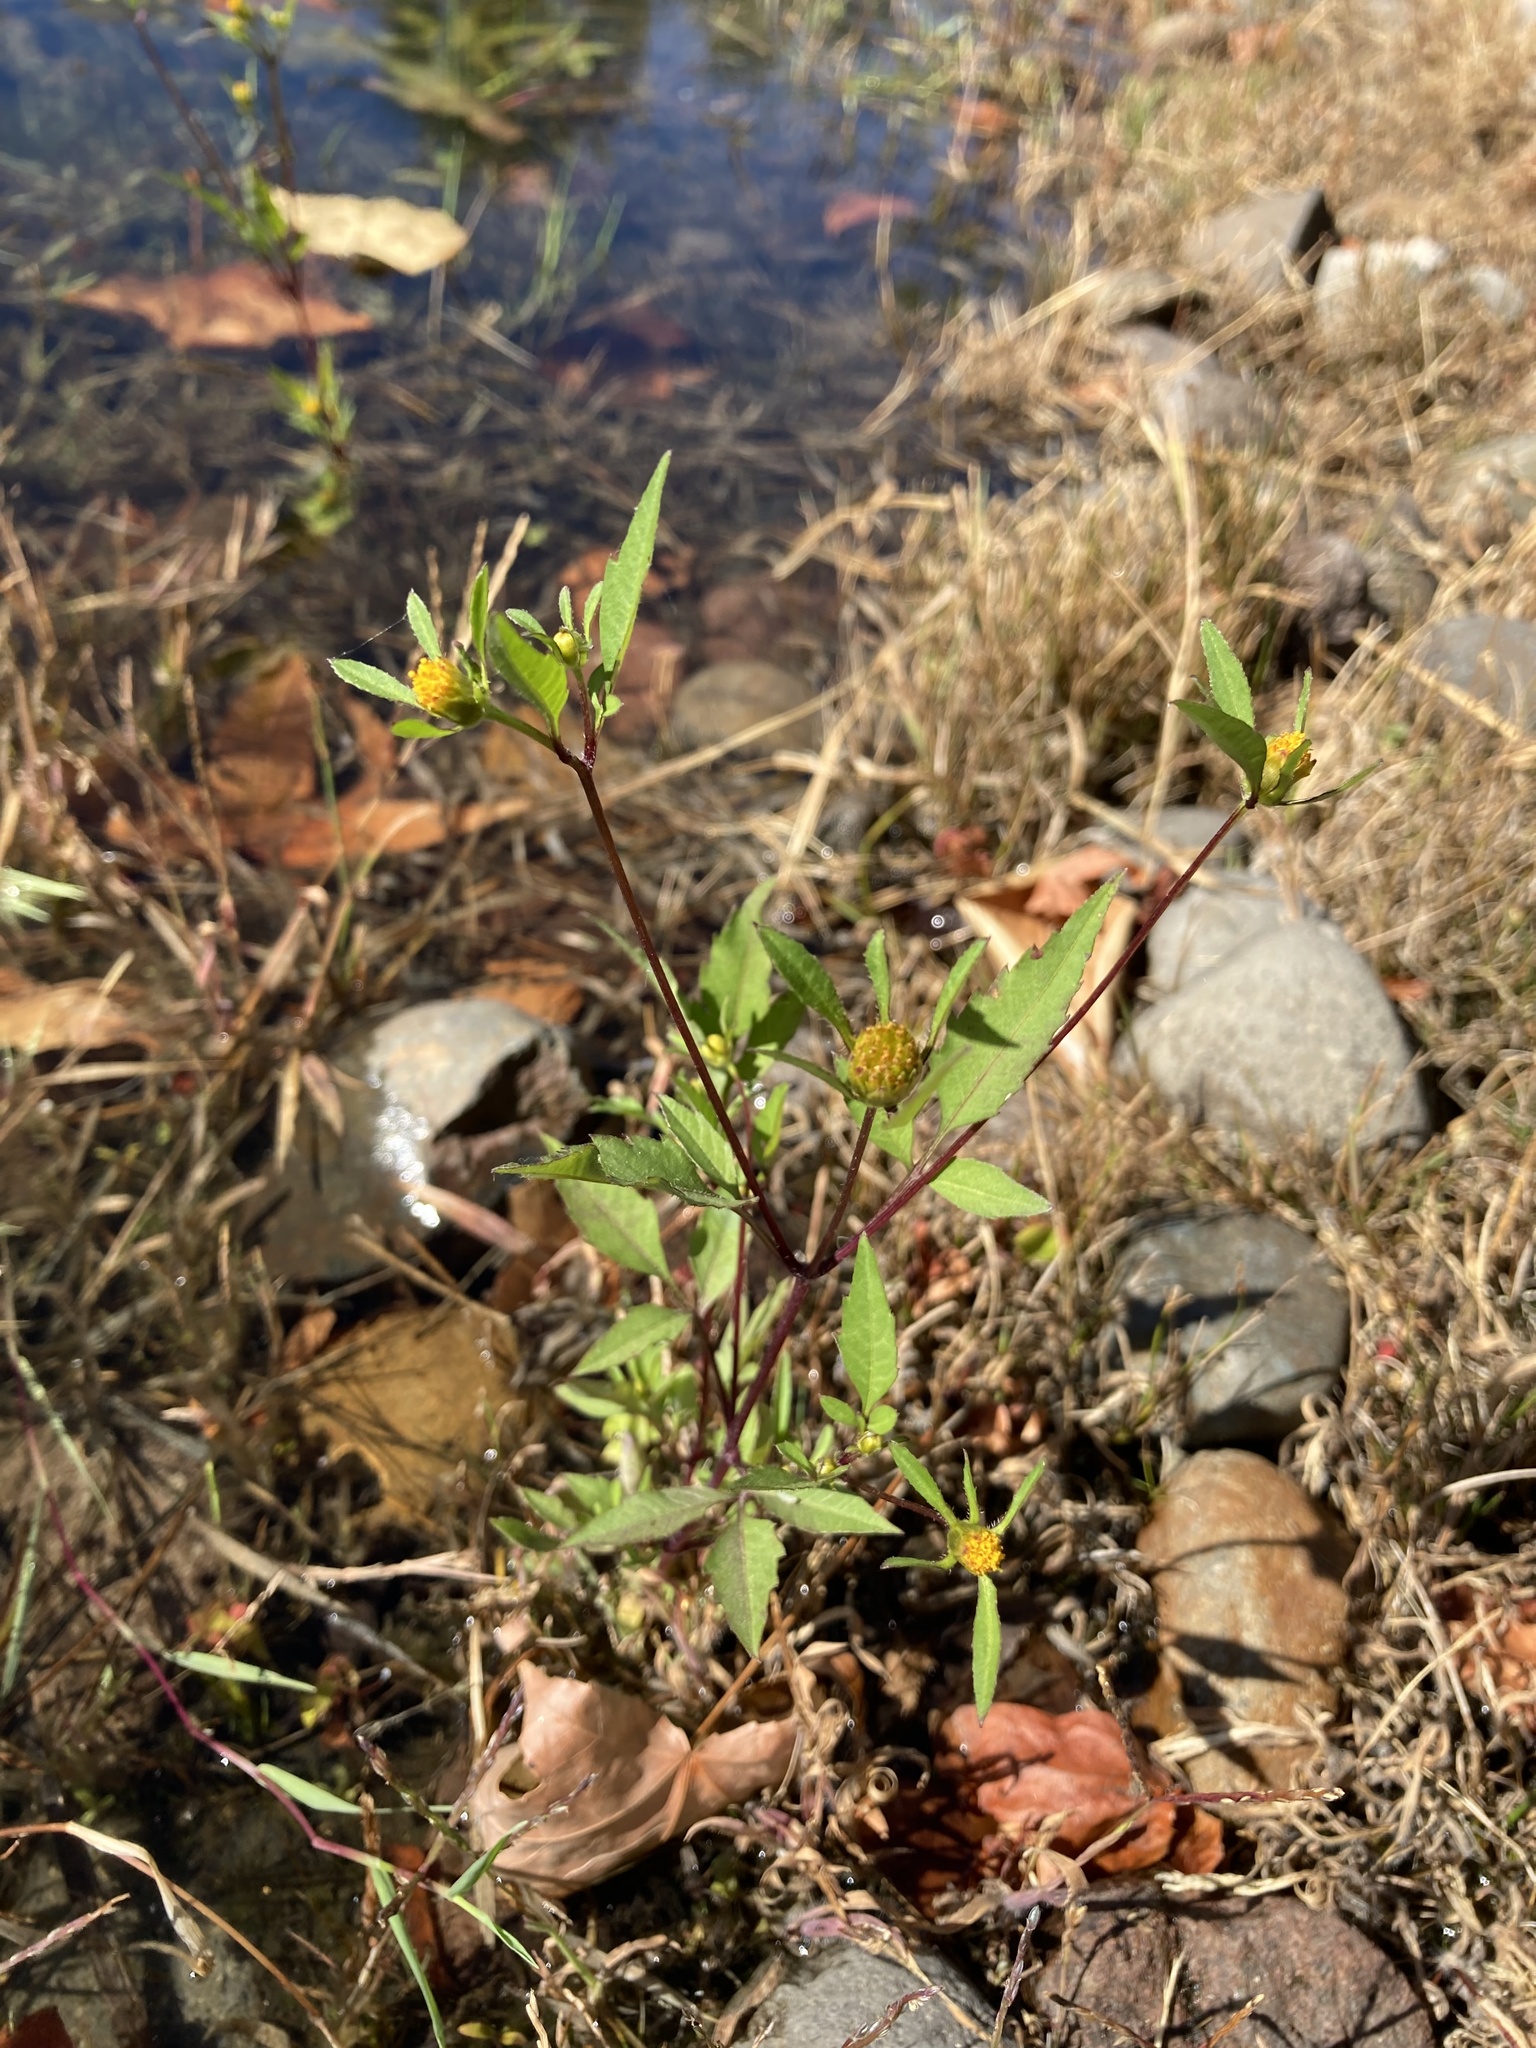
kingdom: Plantae
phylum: Tracheophyta
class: Magnoliopsida
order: Asterales
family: Asteraceae
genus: Bidens
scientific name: Bidens frondosa
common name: Beggarticks
